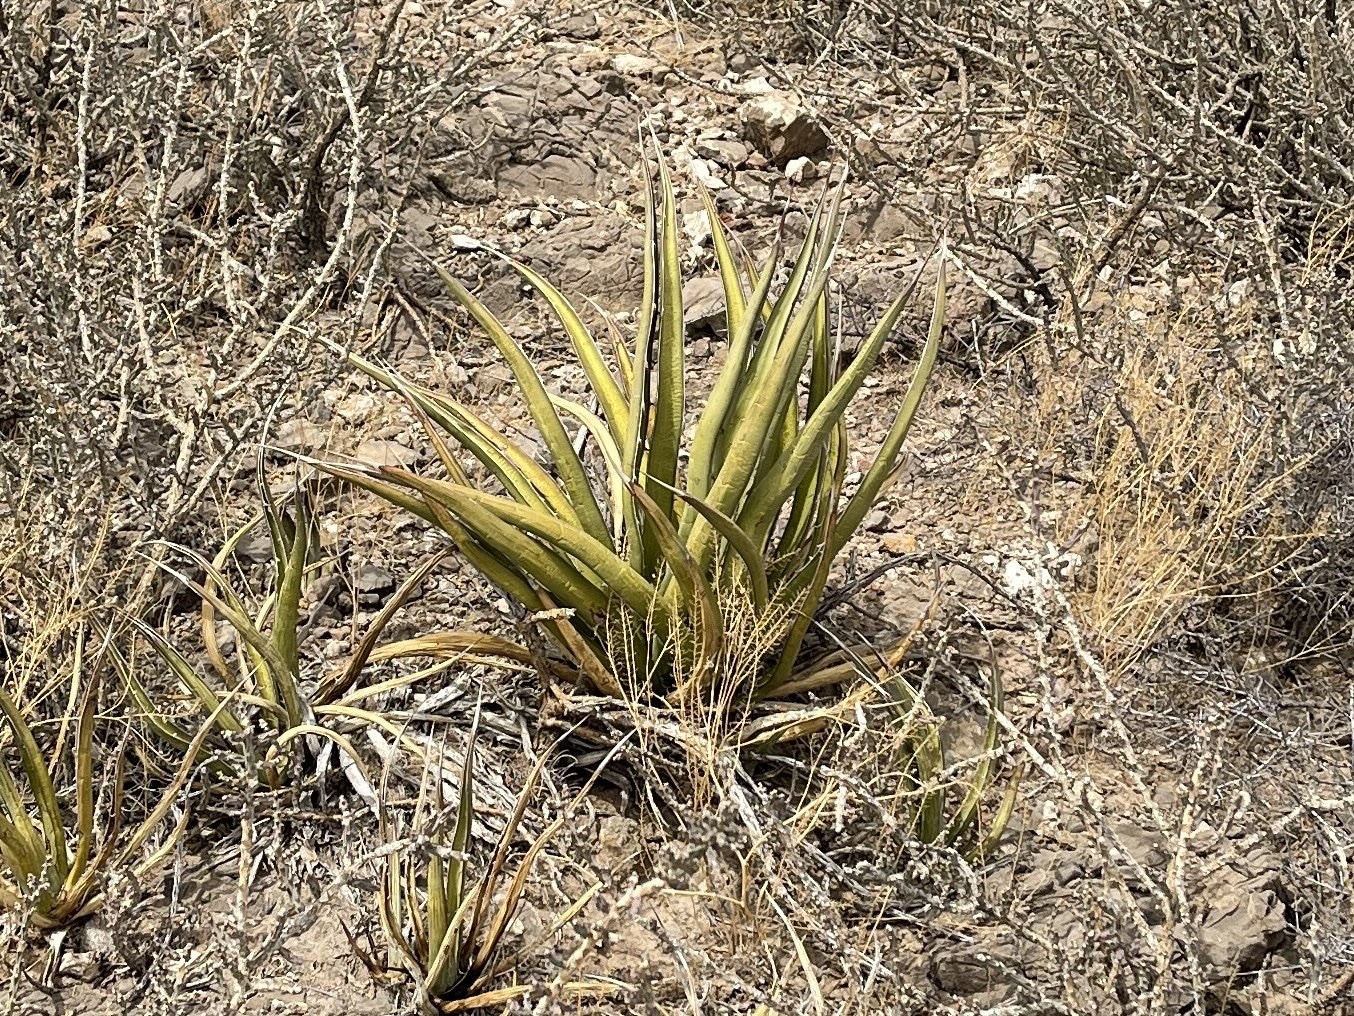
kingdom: Plantae
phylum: Tracheophyta
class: Liliopsida
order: Asparagales
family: Asparagaceae
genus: Agave
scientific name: Agave lechuguilla
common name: Lecheguilla agave
